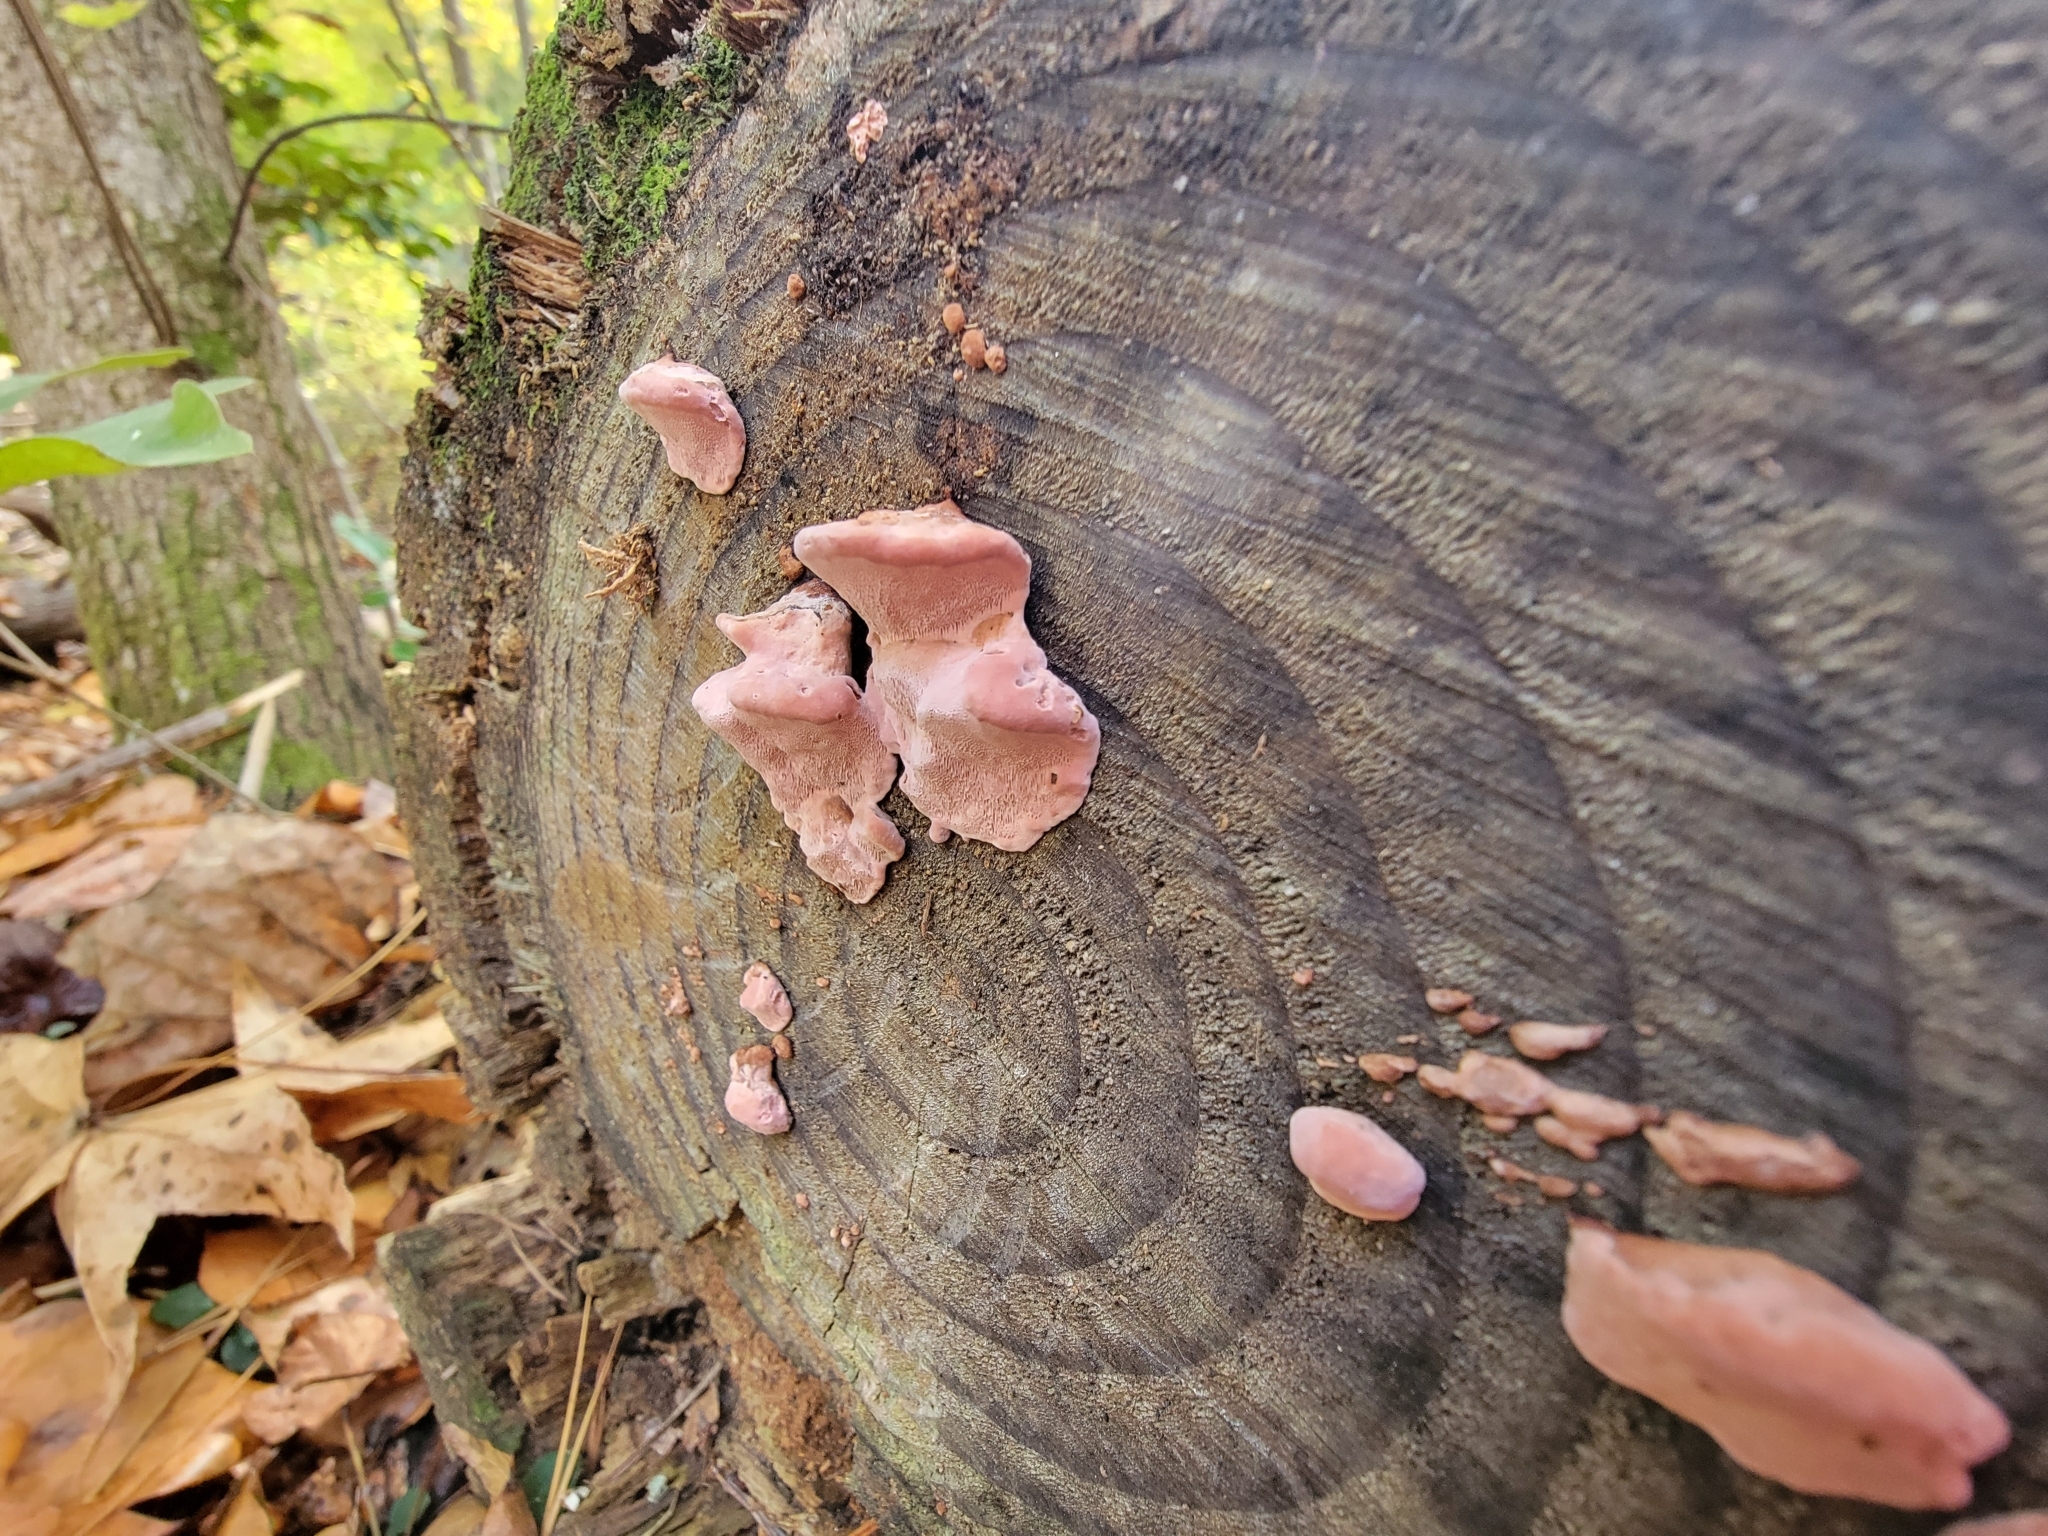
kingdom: Fungi
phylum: Basidiomycota
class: Agaricomycetes
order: Polyporales
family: Fomitopsidaceae
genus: Rhodofomes
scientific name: Rhodofomes cajanderi
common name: Rosy conk
